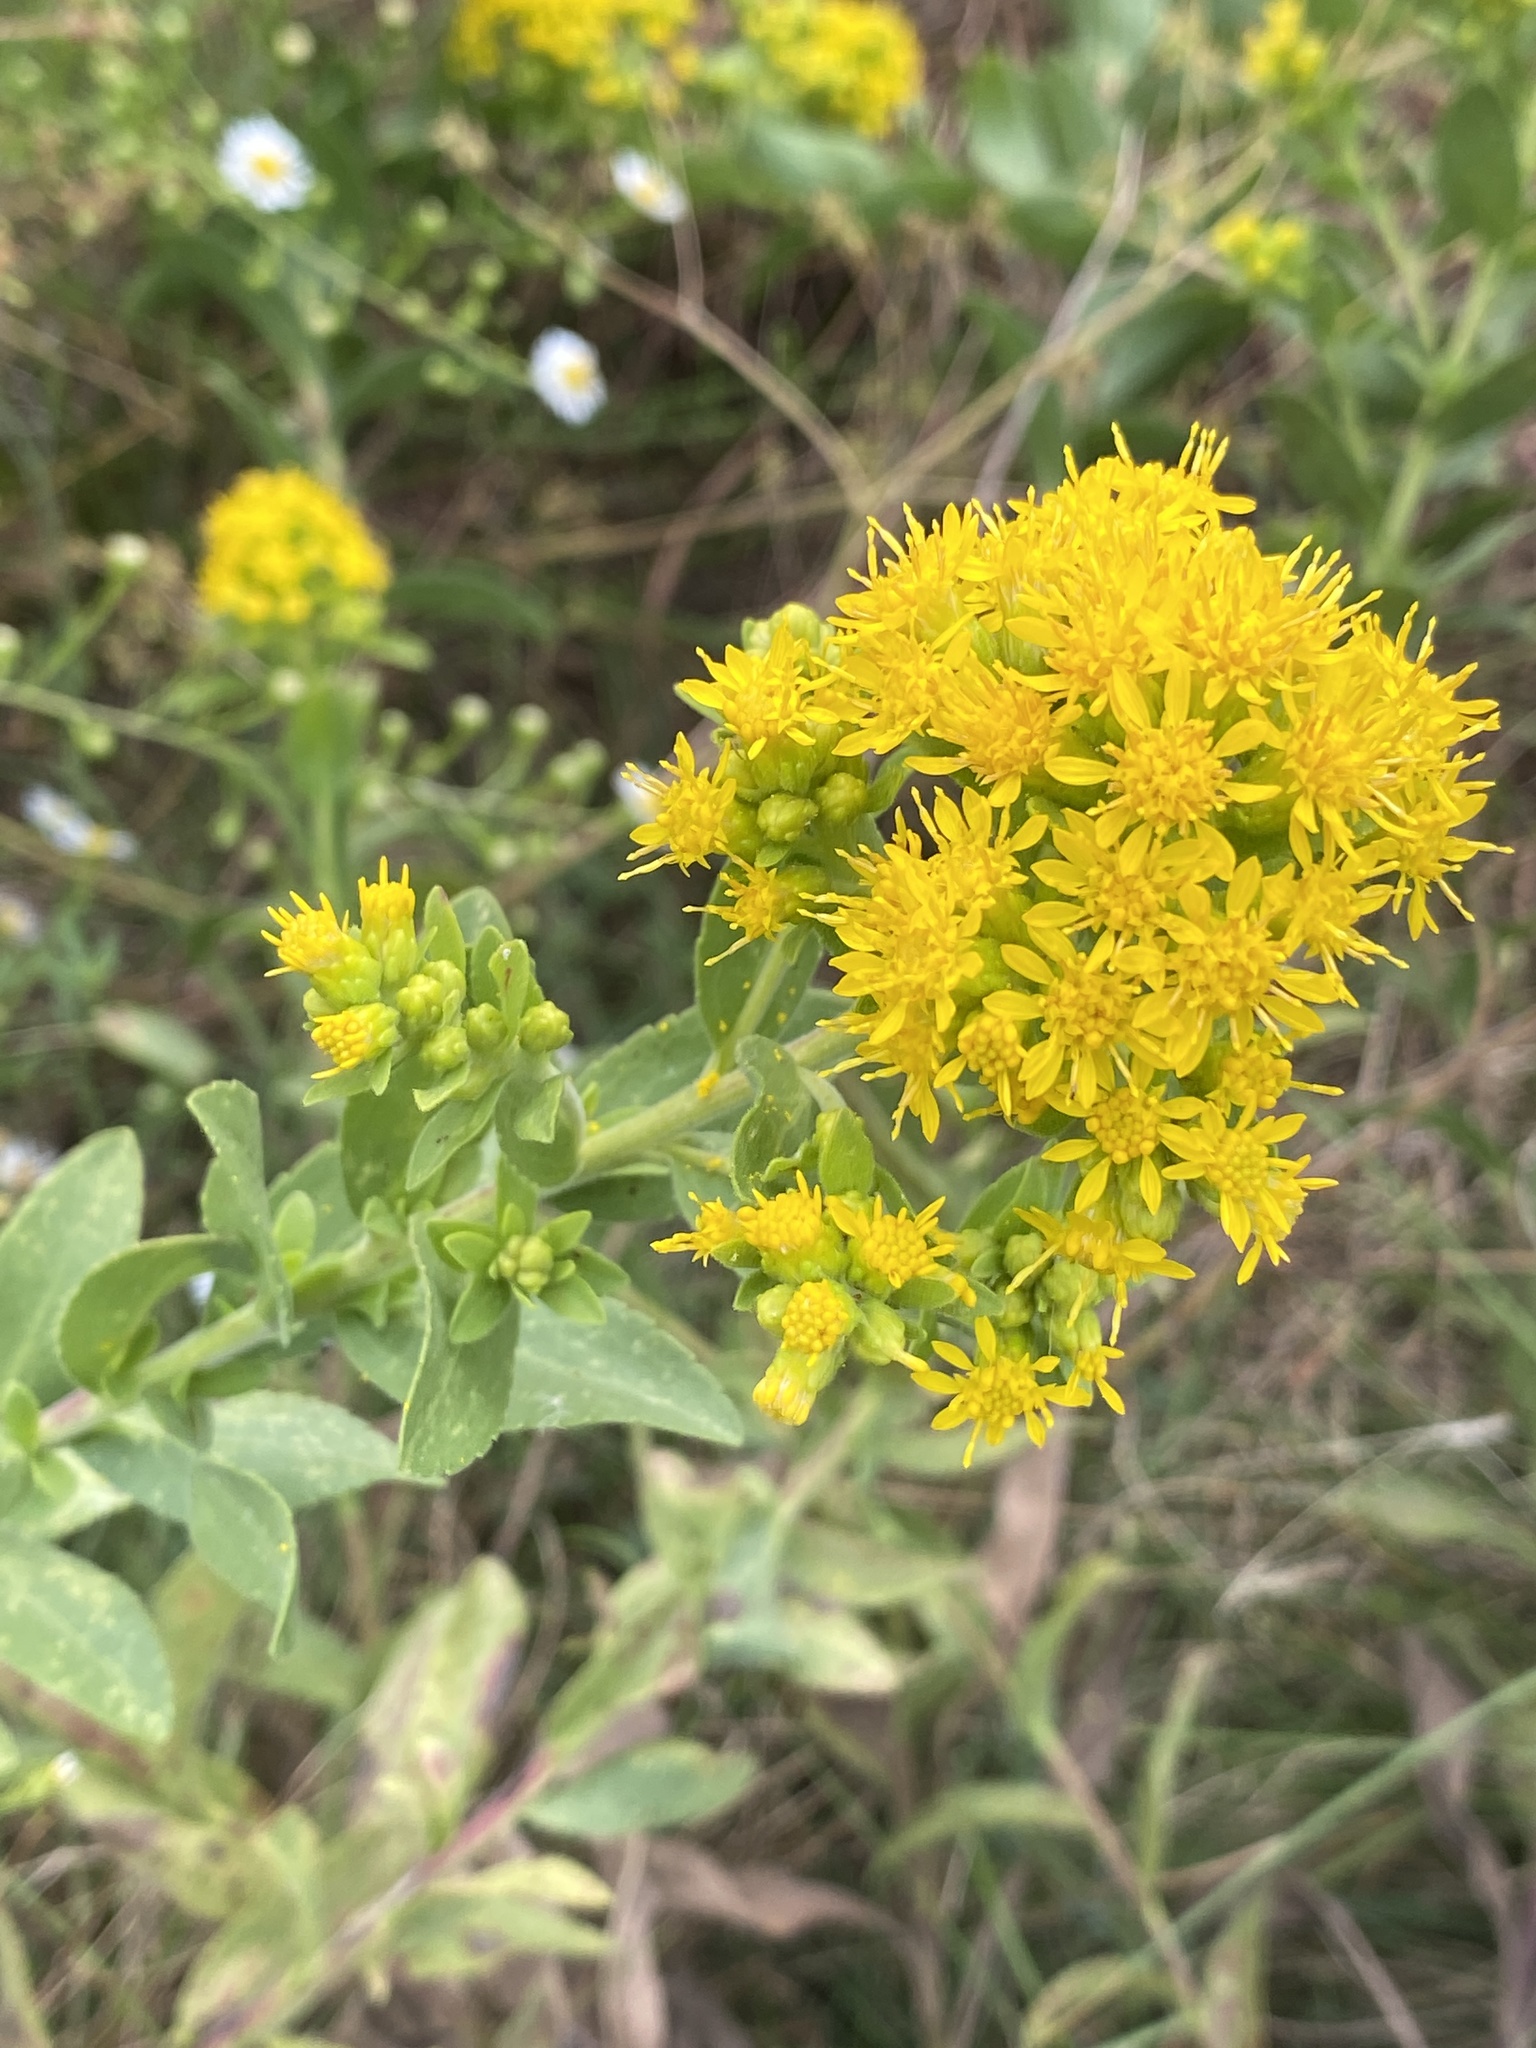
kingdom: Plantae
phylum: Tracheophyta
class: Magnoliopsida
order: Asterales
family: Asteraceae
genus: Solidago
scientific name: Solidago rigida
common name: Rigid goldenrod
